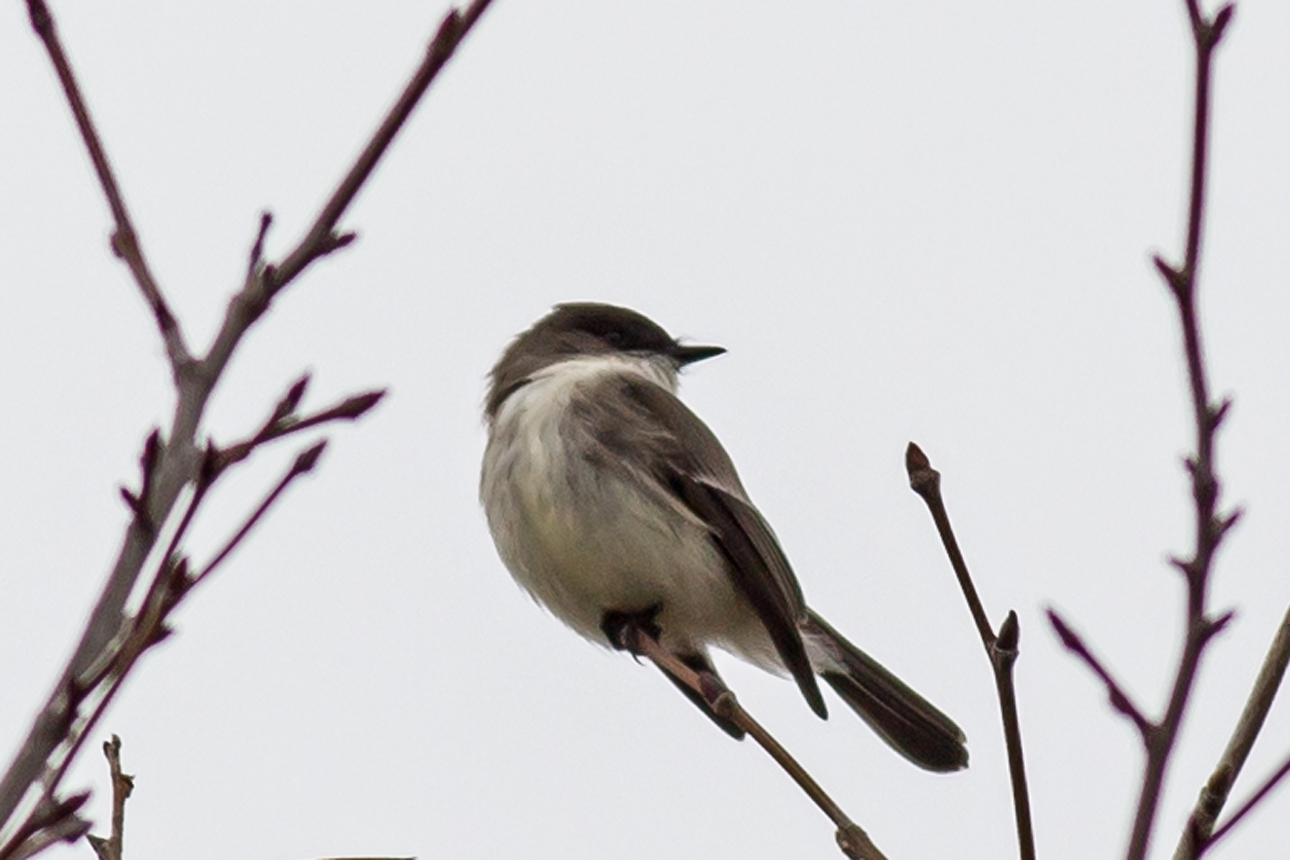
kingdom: Animalia
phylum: Chordata
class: Aves
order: Passeriformes
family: Tyrannidae
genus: Sayornis
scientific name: Sayornis phoebe
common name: Eastern phoebe
